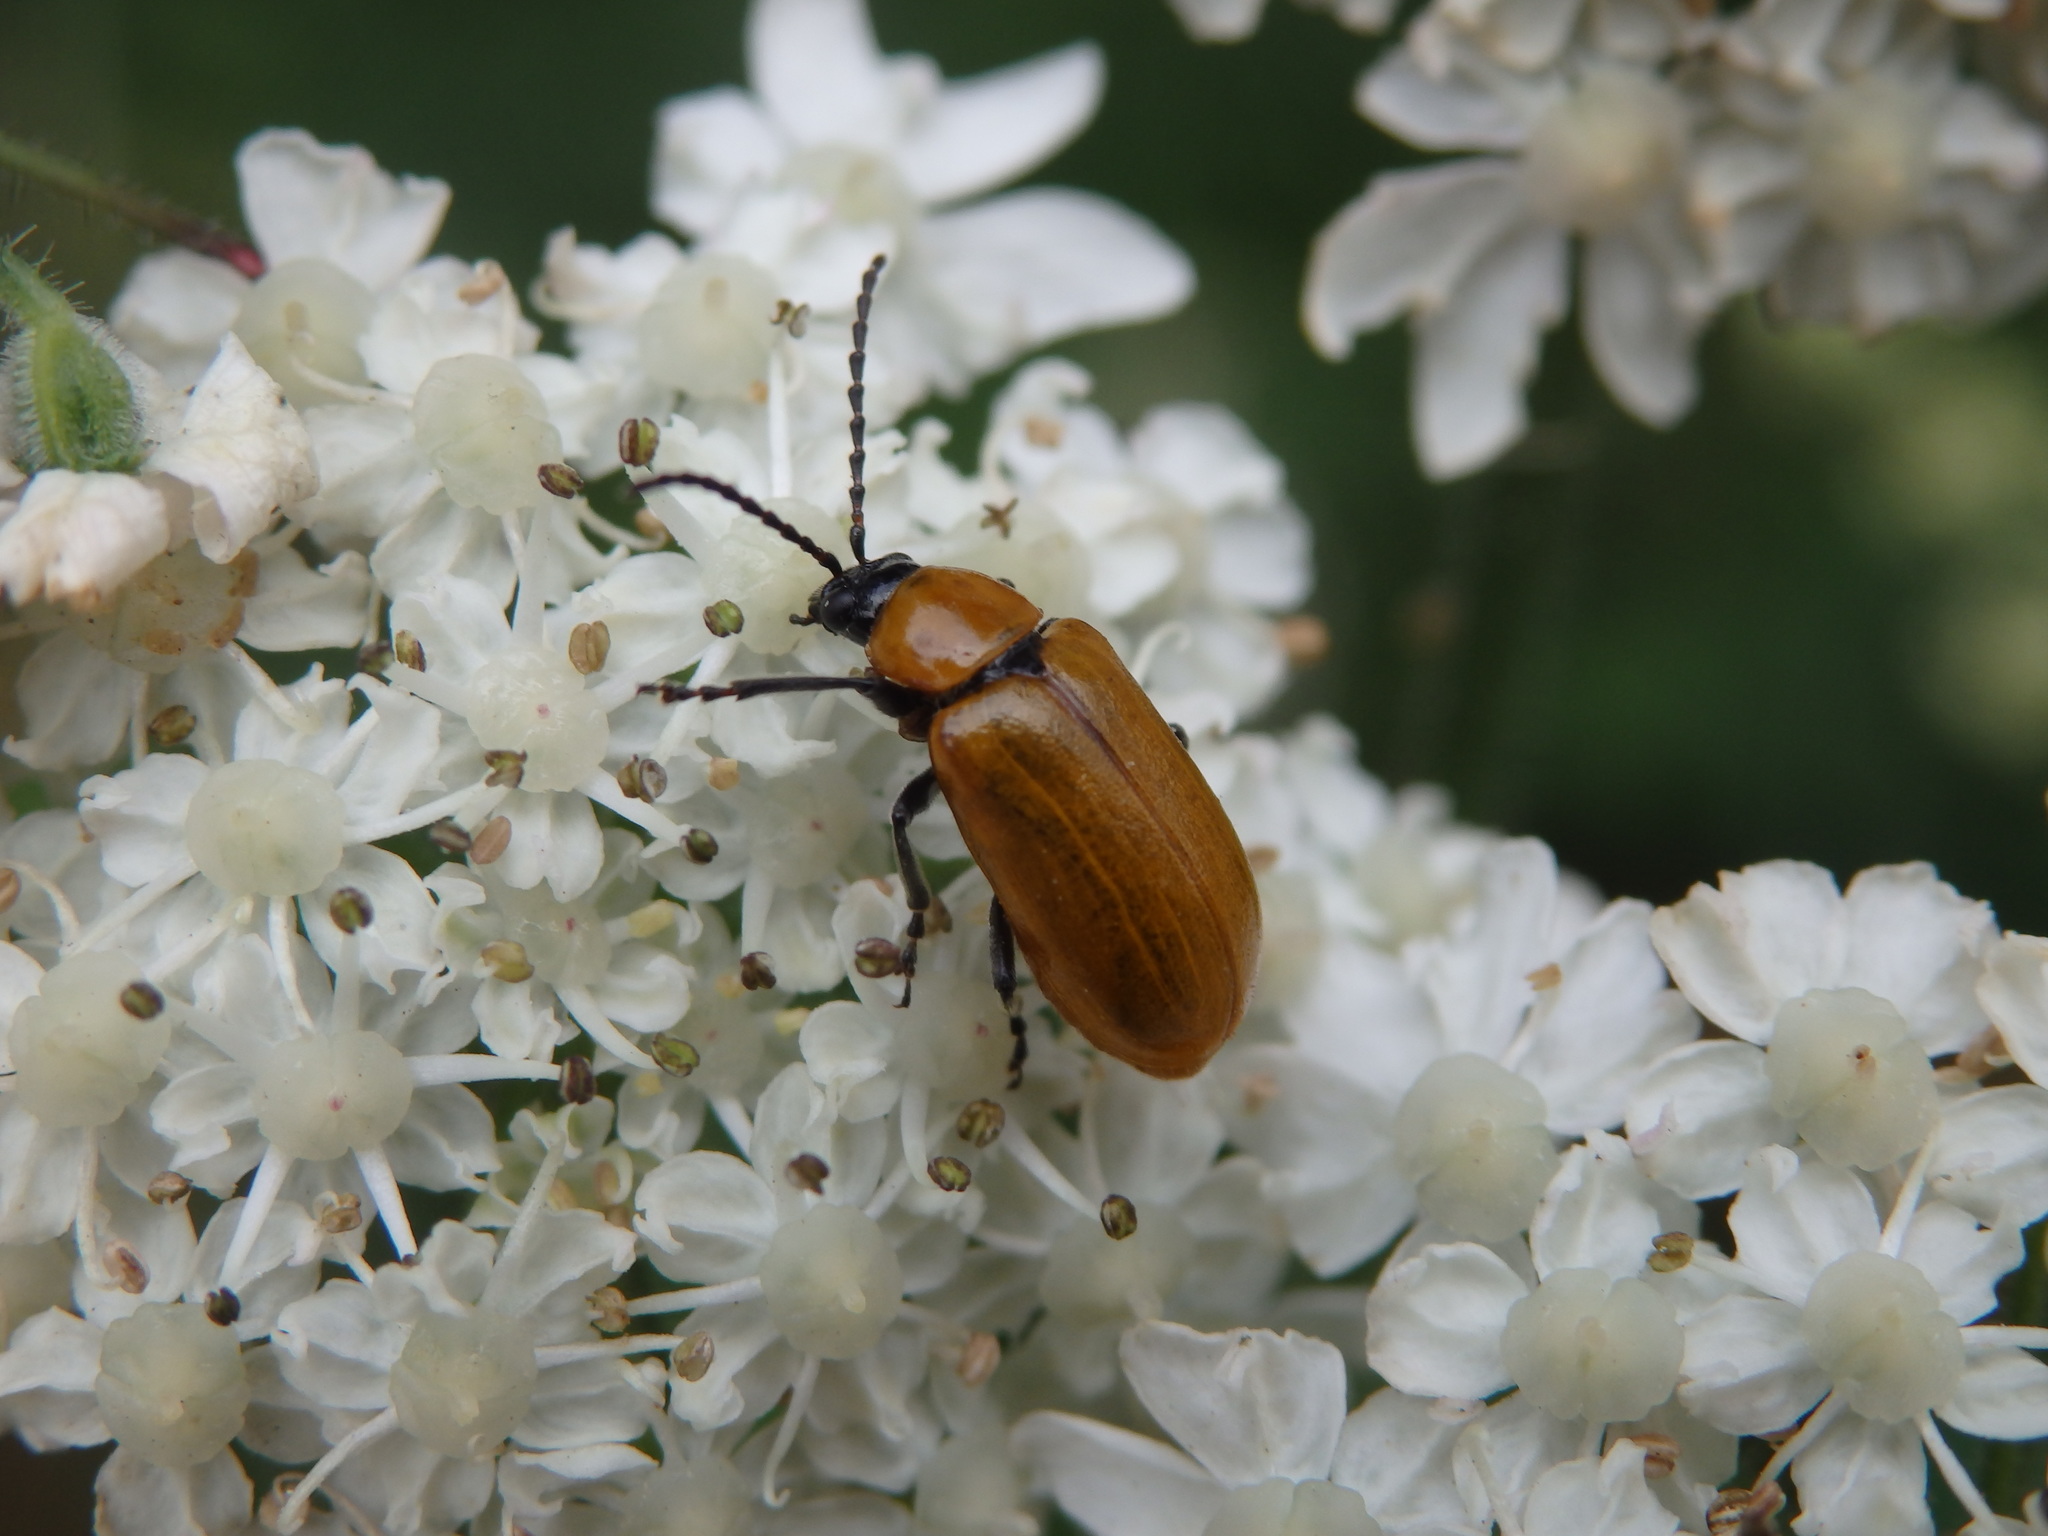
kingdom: Animalia
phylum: Arthropoda
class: Insecta
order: Coleoptera
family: Chrysomelidae
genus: Exosoma
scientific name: Exosoma lusitanicum
